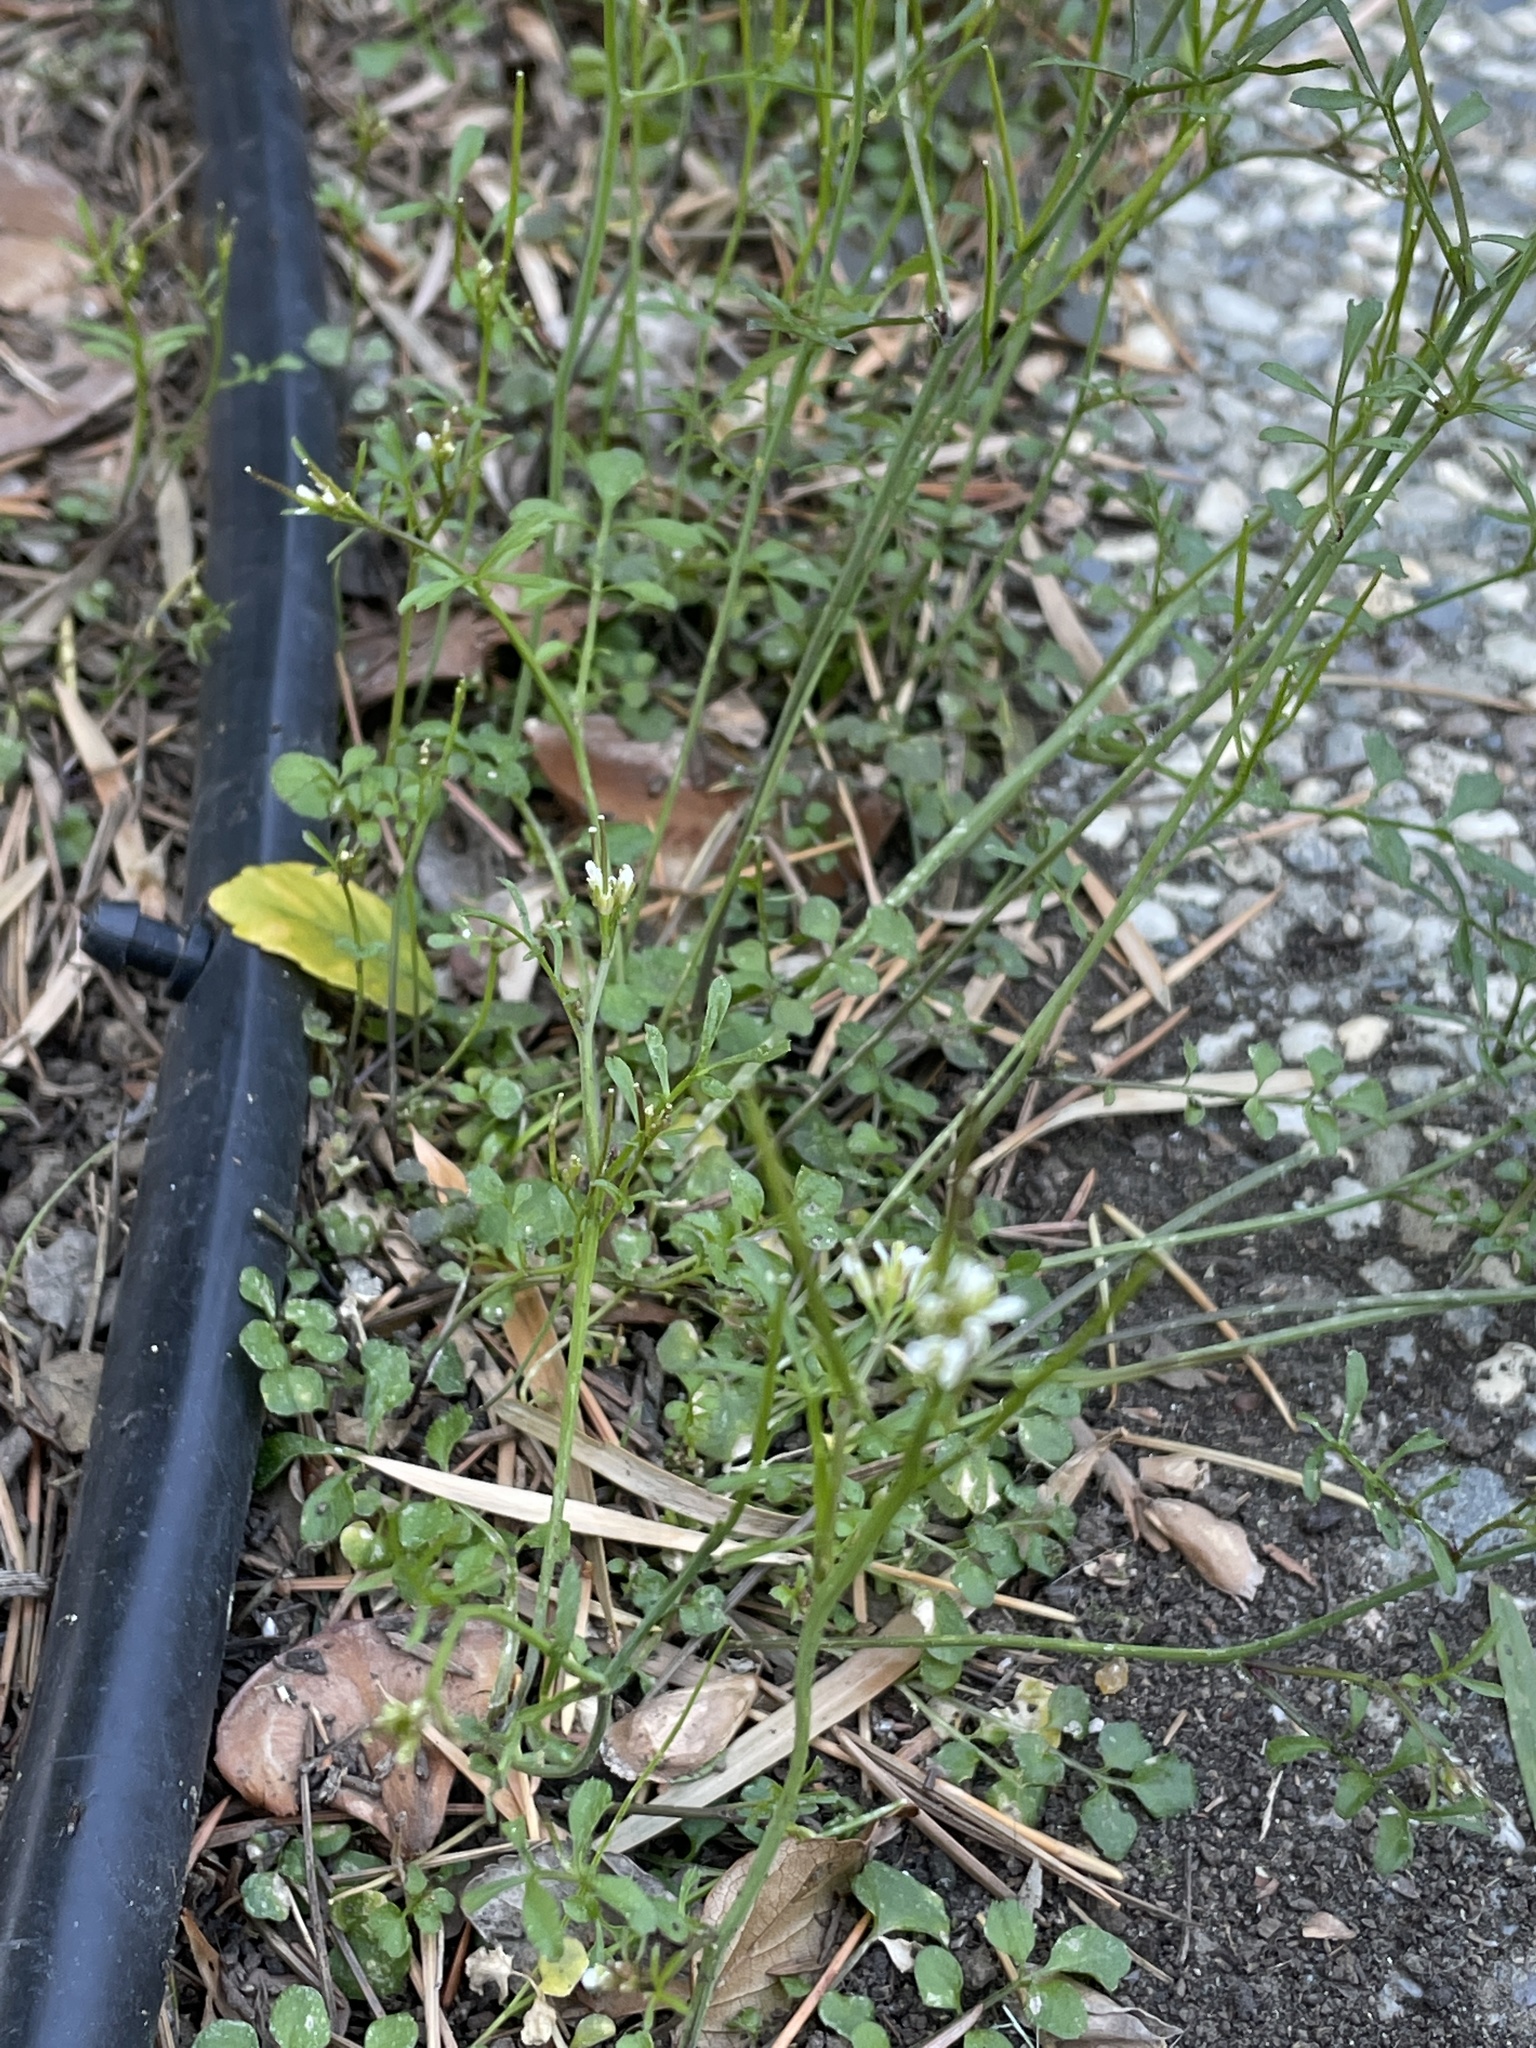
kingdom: Plantae
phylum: Tracheophyta
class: Magnoliopsida
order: Brassicales
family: Brassicaceae
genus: Cardamine
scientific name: Cardamine hirsuta
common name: Hairy bittercress
